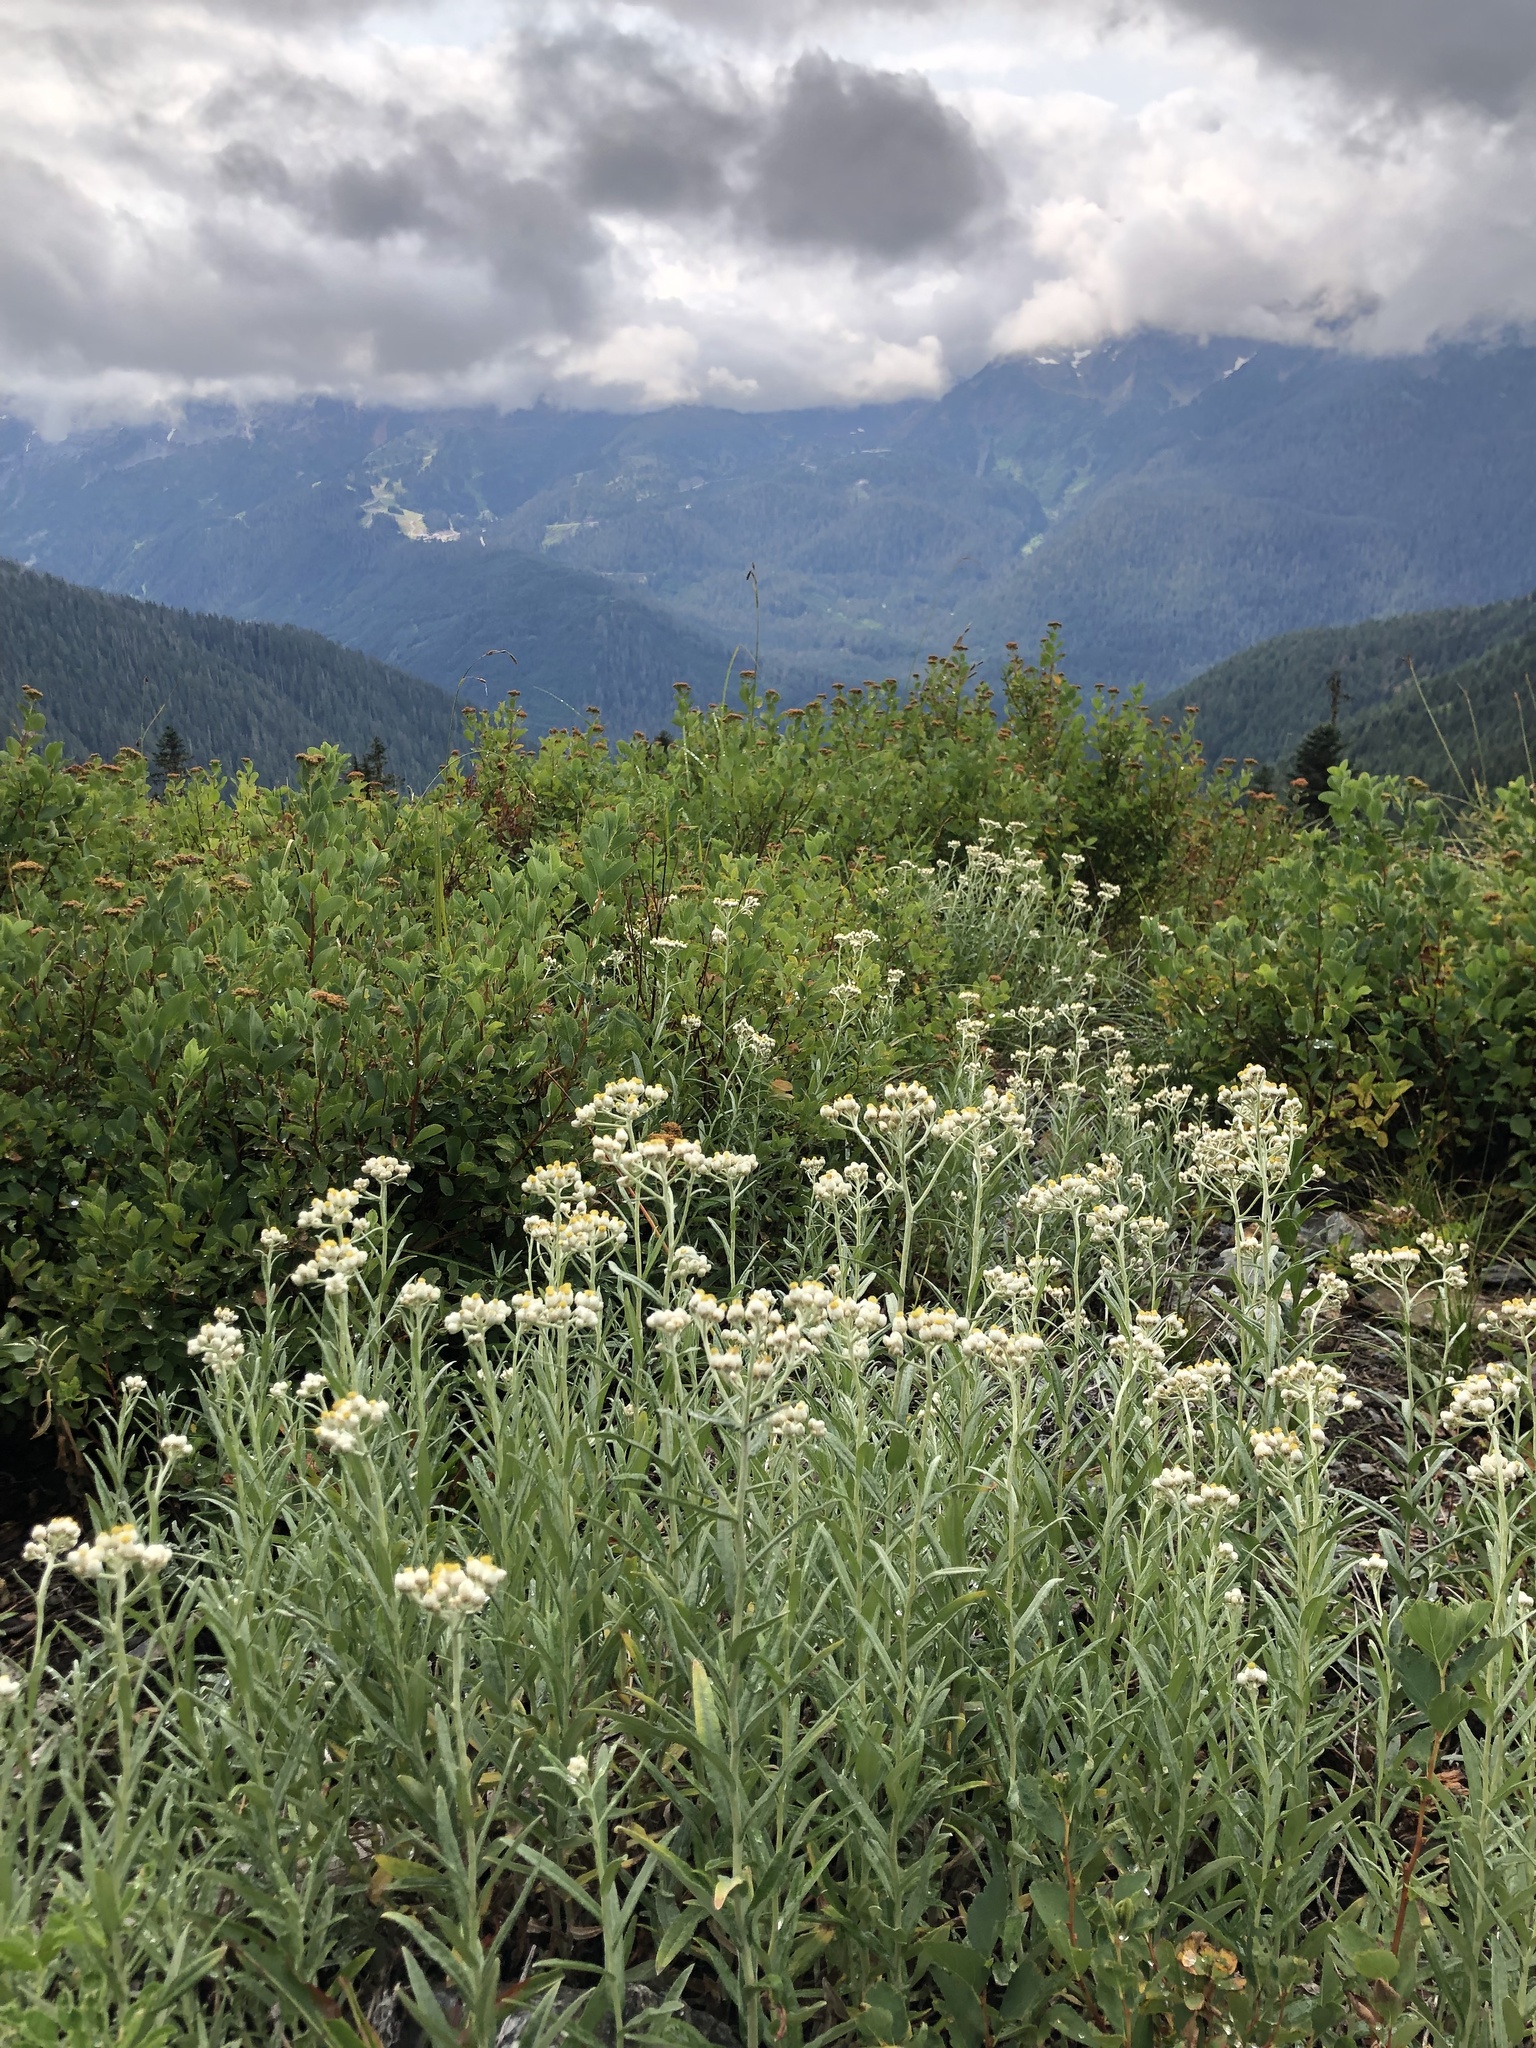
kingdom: Plantae
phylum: Tracheophyta
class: Magnoliopsida
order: Asterales
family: Asteraceae
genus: Anaphalis
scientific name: Anaphalis margaritacea
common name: Pearly everlasting
